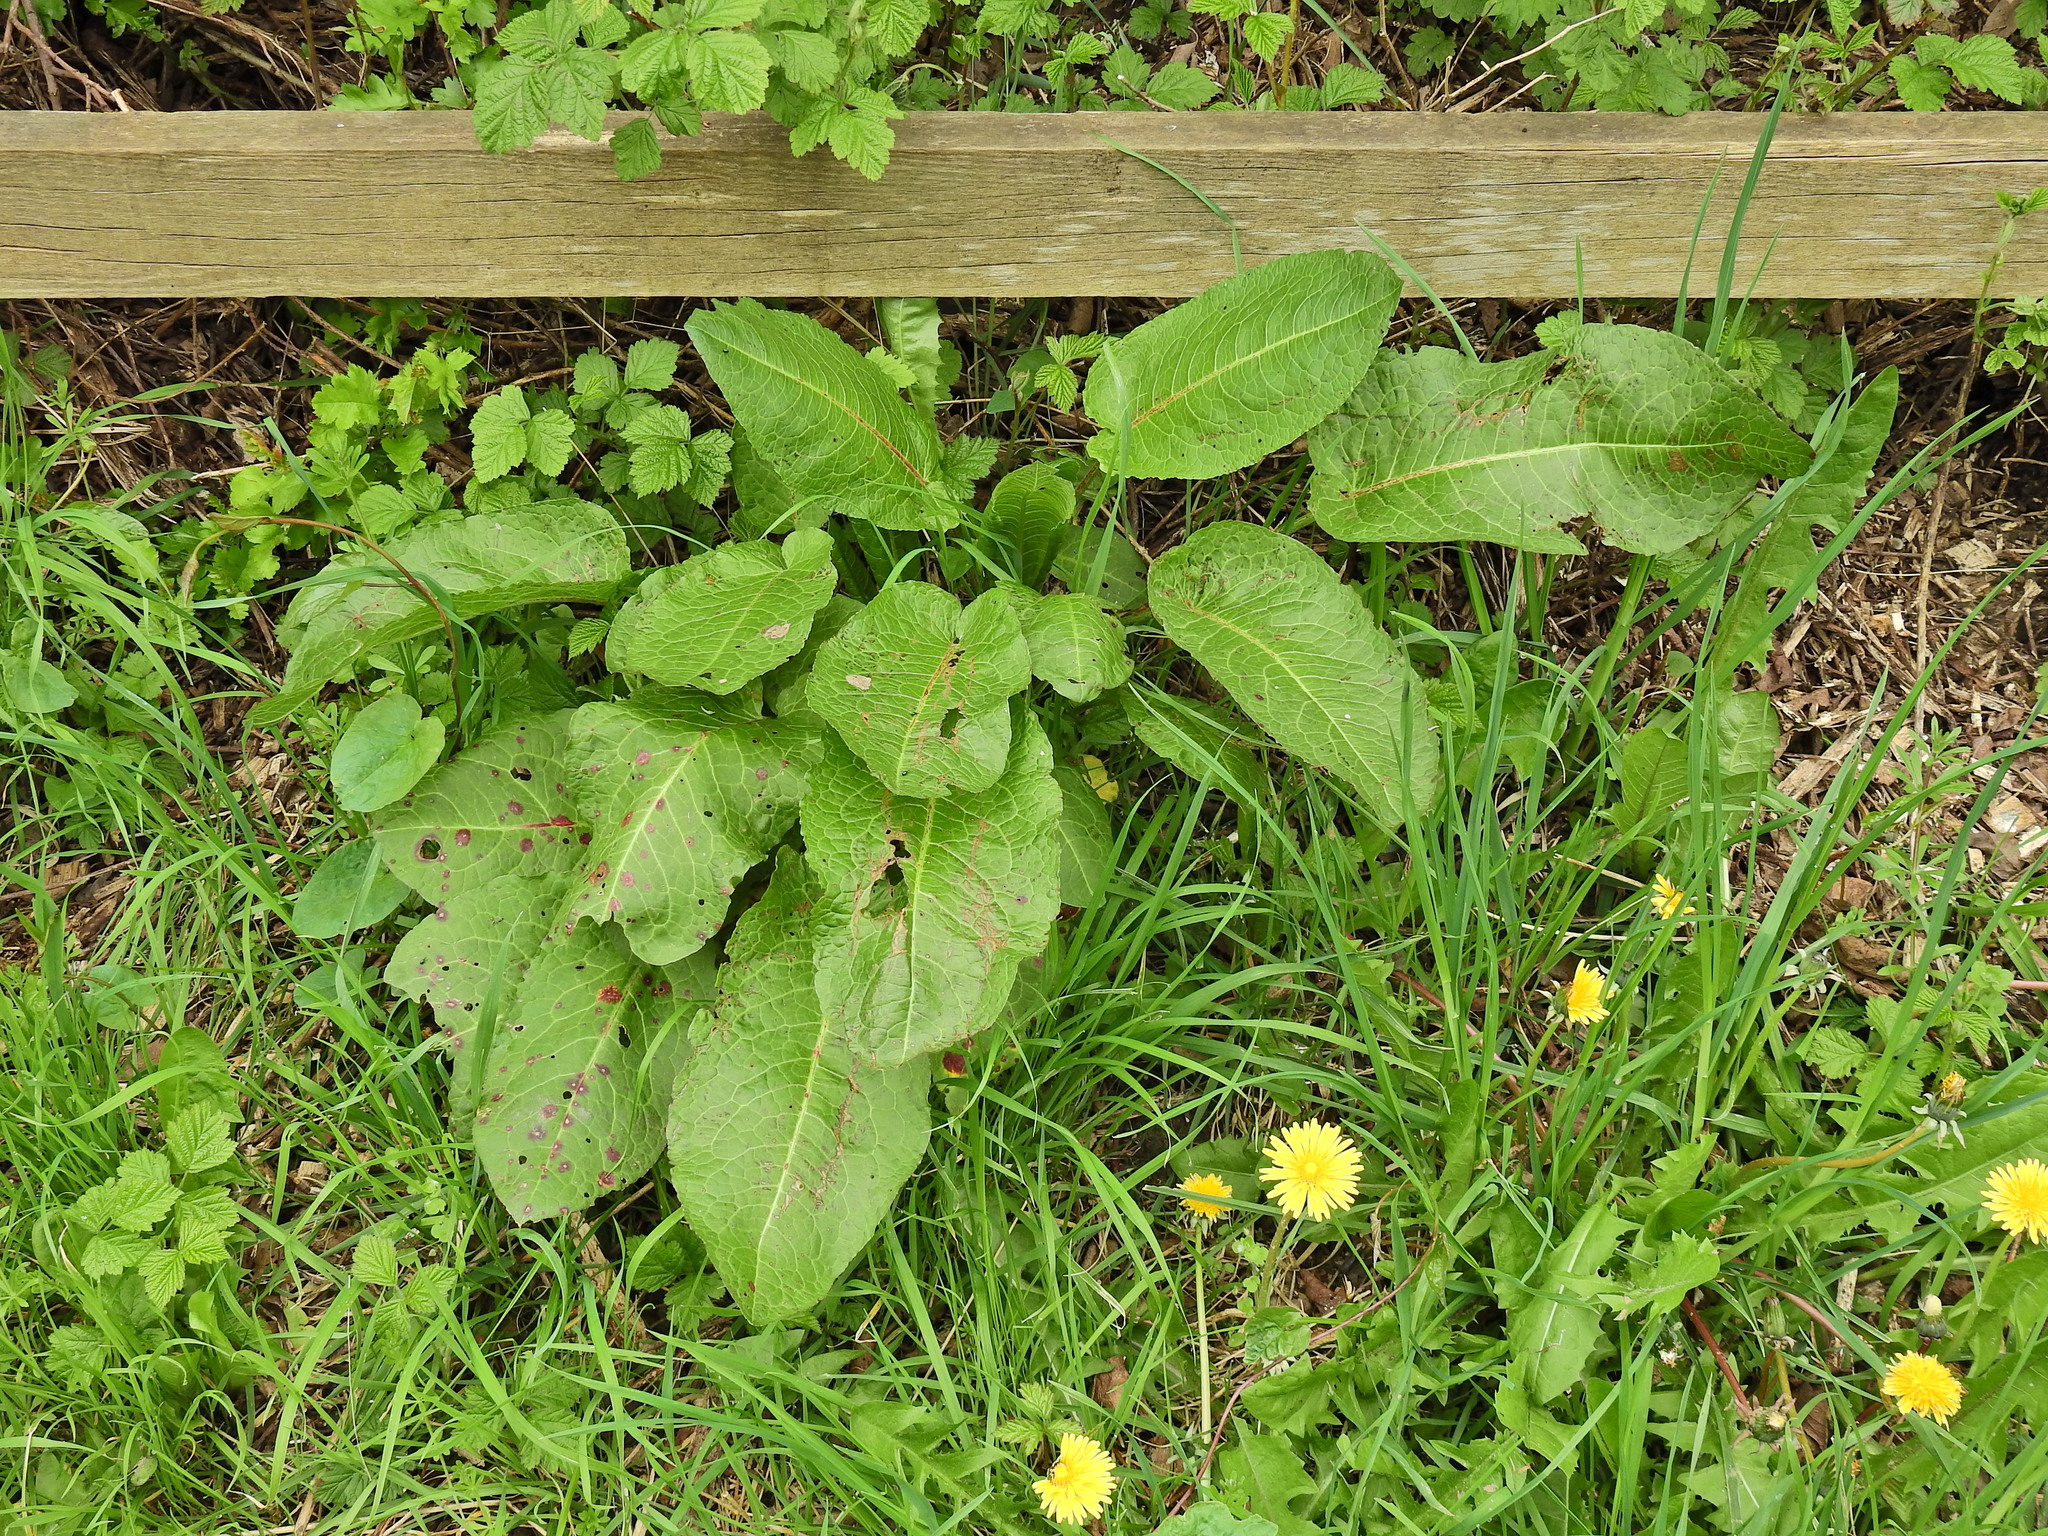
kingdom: Plantae
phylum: Tracheophyta
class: Magnoliopsida
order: Caryophyllales
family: Polygonaceae
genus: Rumex
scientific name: Rumex obtusifolius
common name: Bitter dock
